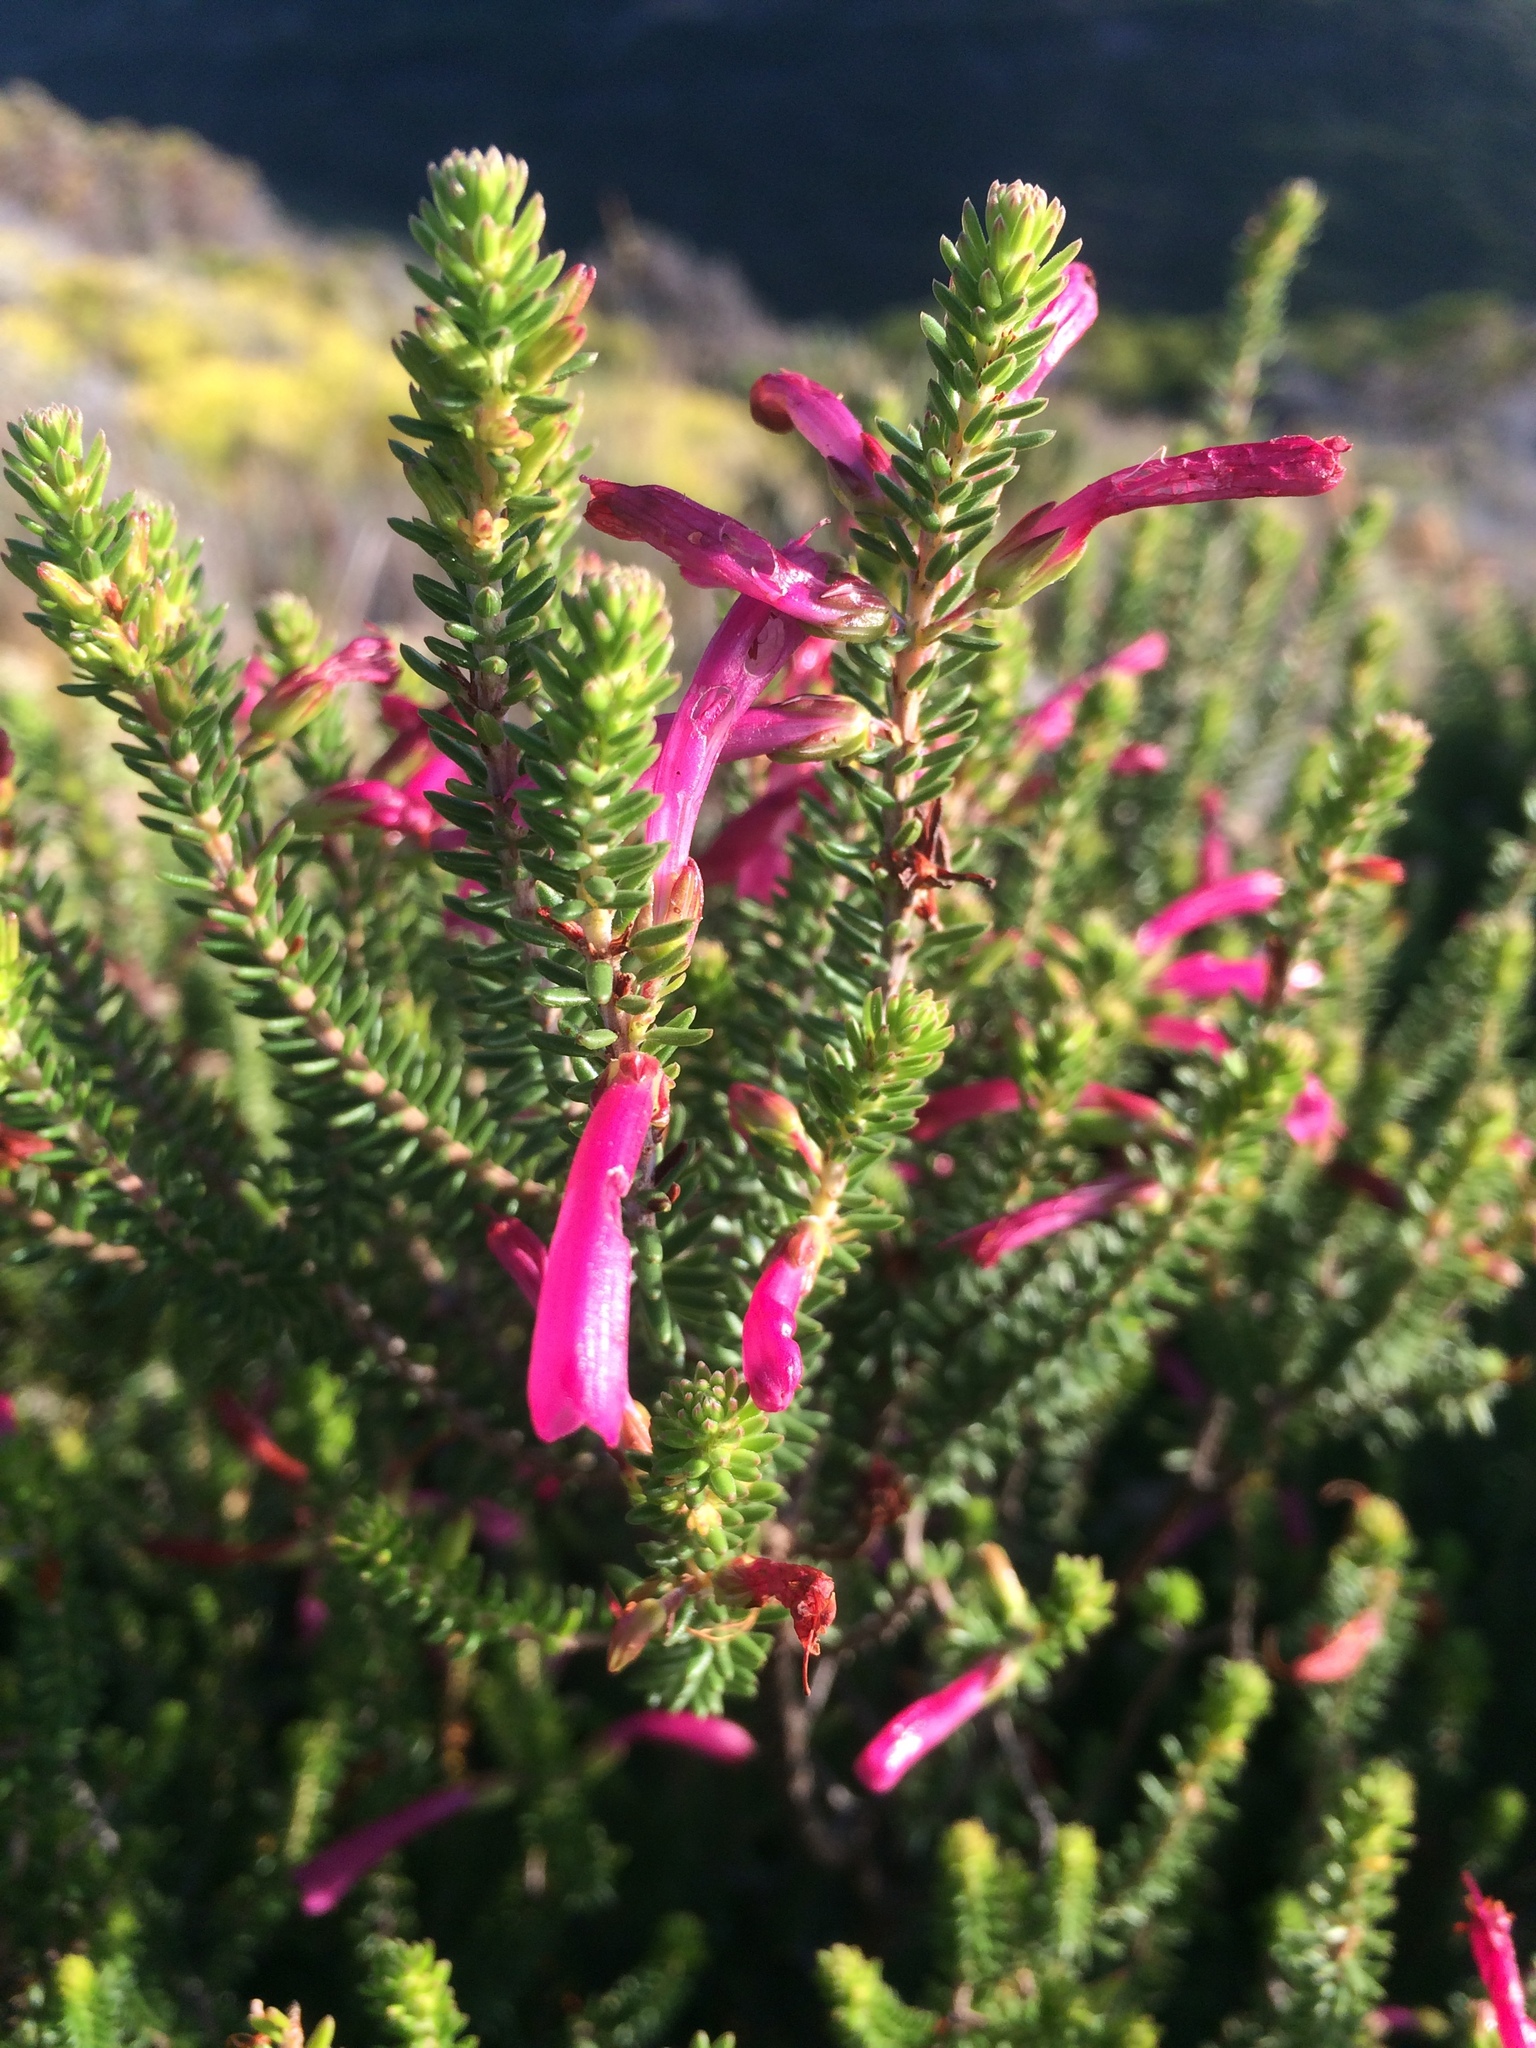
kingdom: Plantae
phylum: Tracheophyta
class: Magnoliopsida
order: Ericales
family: Ericaceae
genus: Erica
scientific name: Erica abietina
